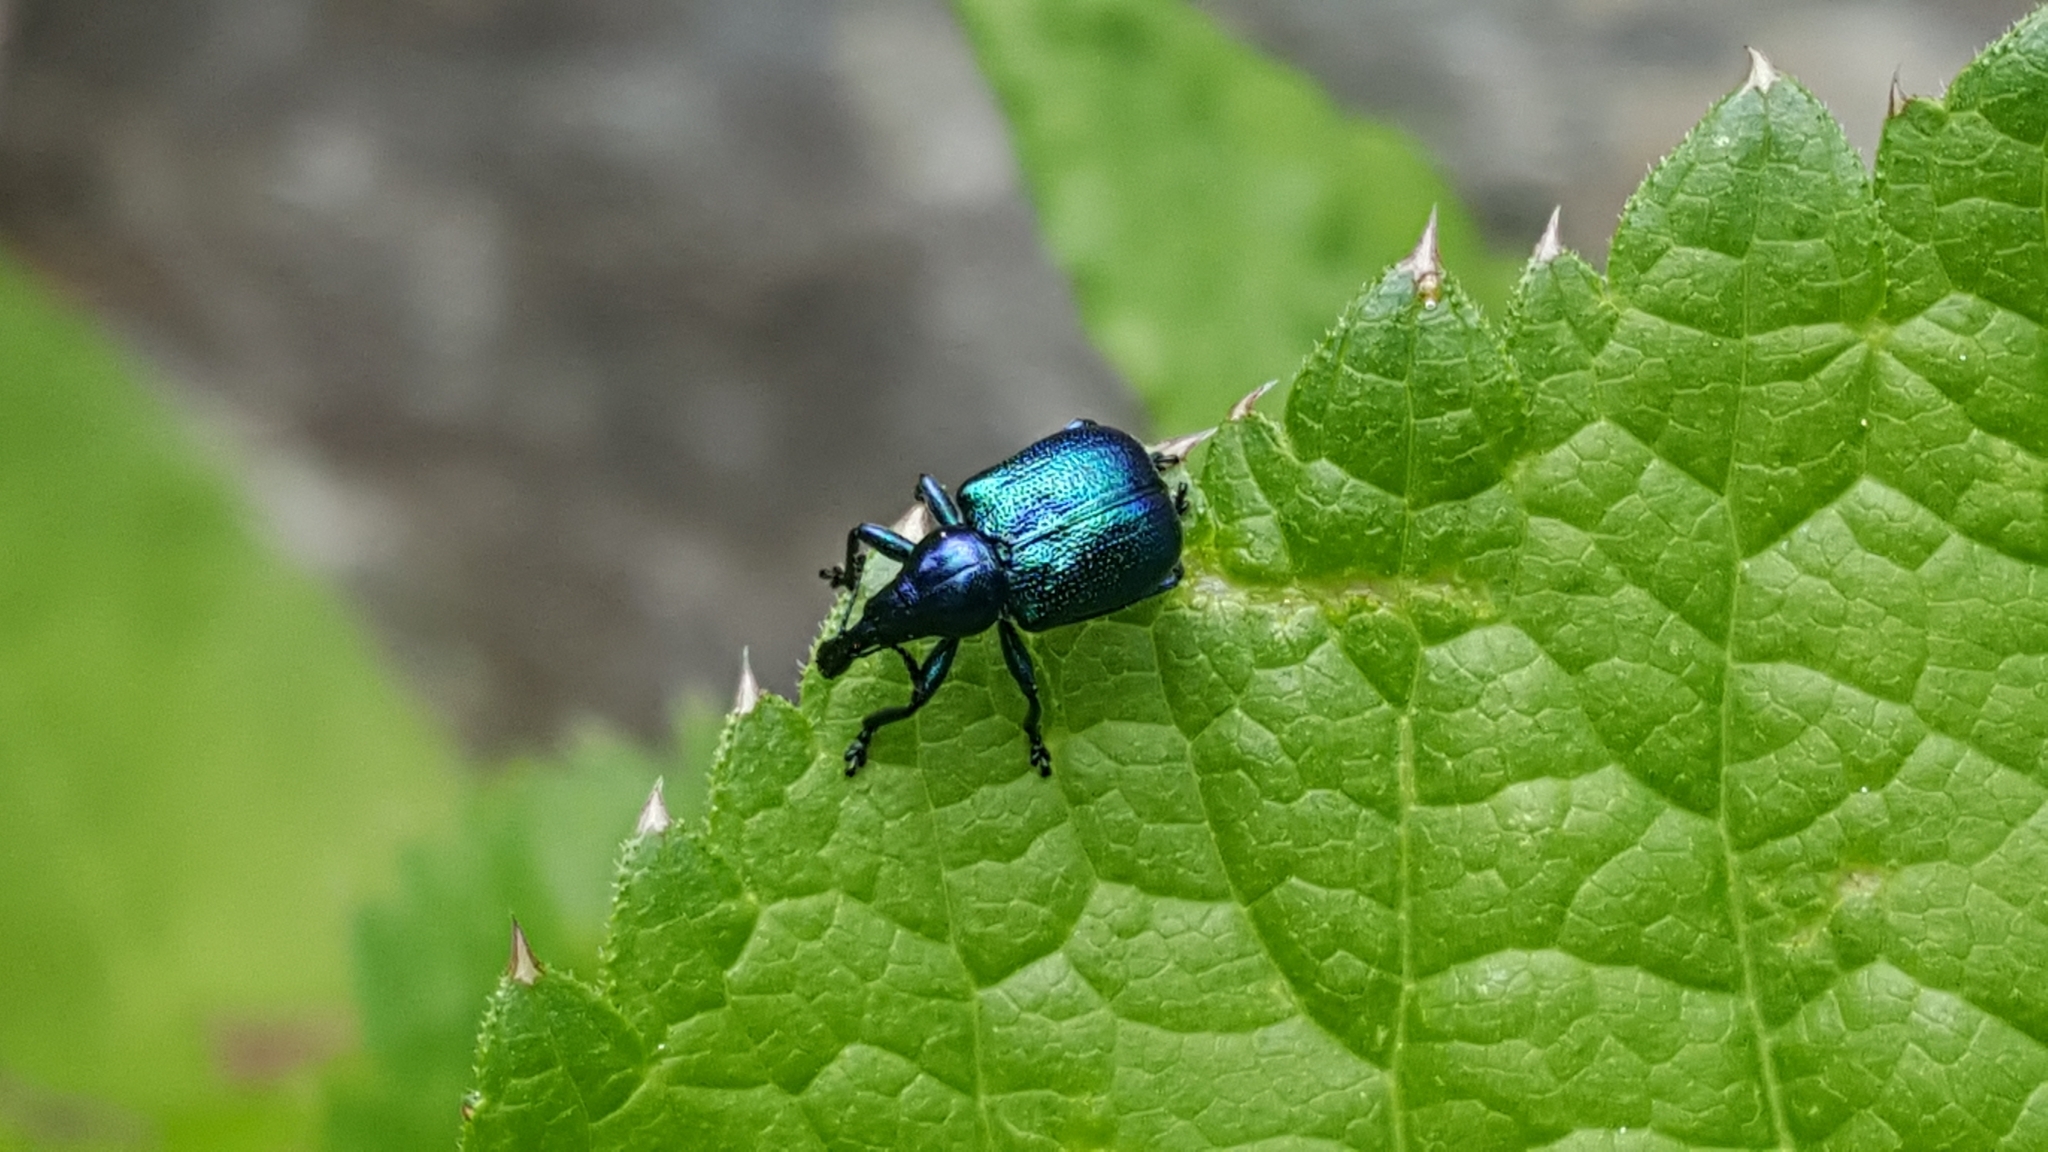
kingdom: Animalia
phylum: Arthropoda
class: Insecta
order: Coleoptera
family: Attelabidae
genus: Byctiscus
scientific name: Byctiscus betulae
